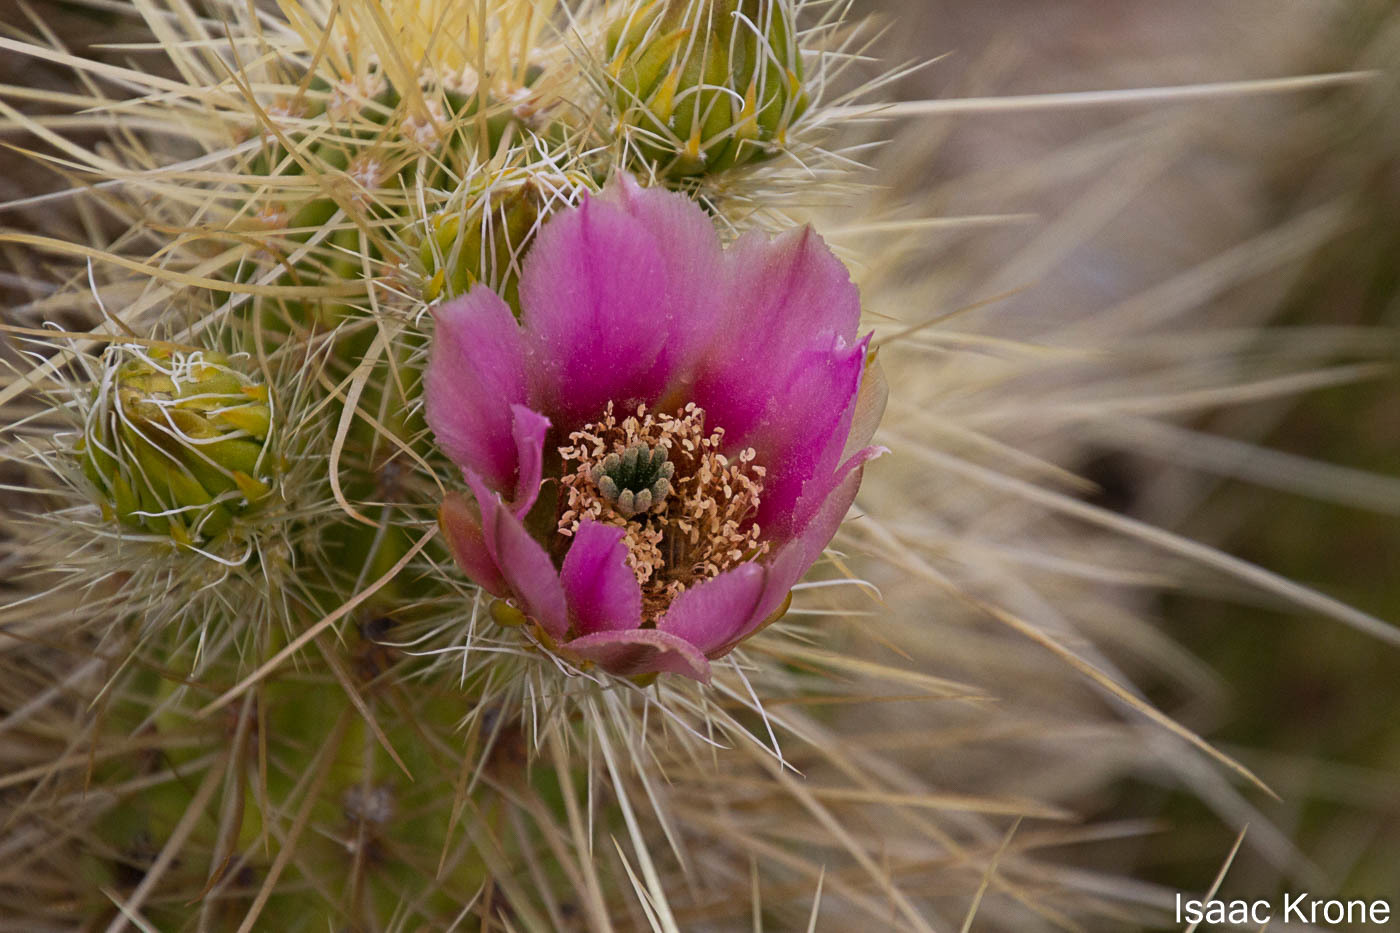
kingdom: Plantae
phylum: Tracheophyta
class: Magnoliopsida
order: Caryophyllales
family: Cactaceae
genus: Echinocereus
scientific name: Echinocereus nicholii
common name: Nichol's hedgehog cactus
